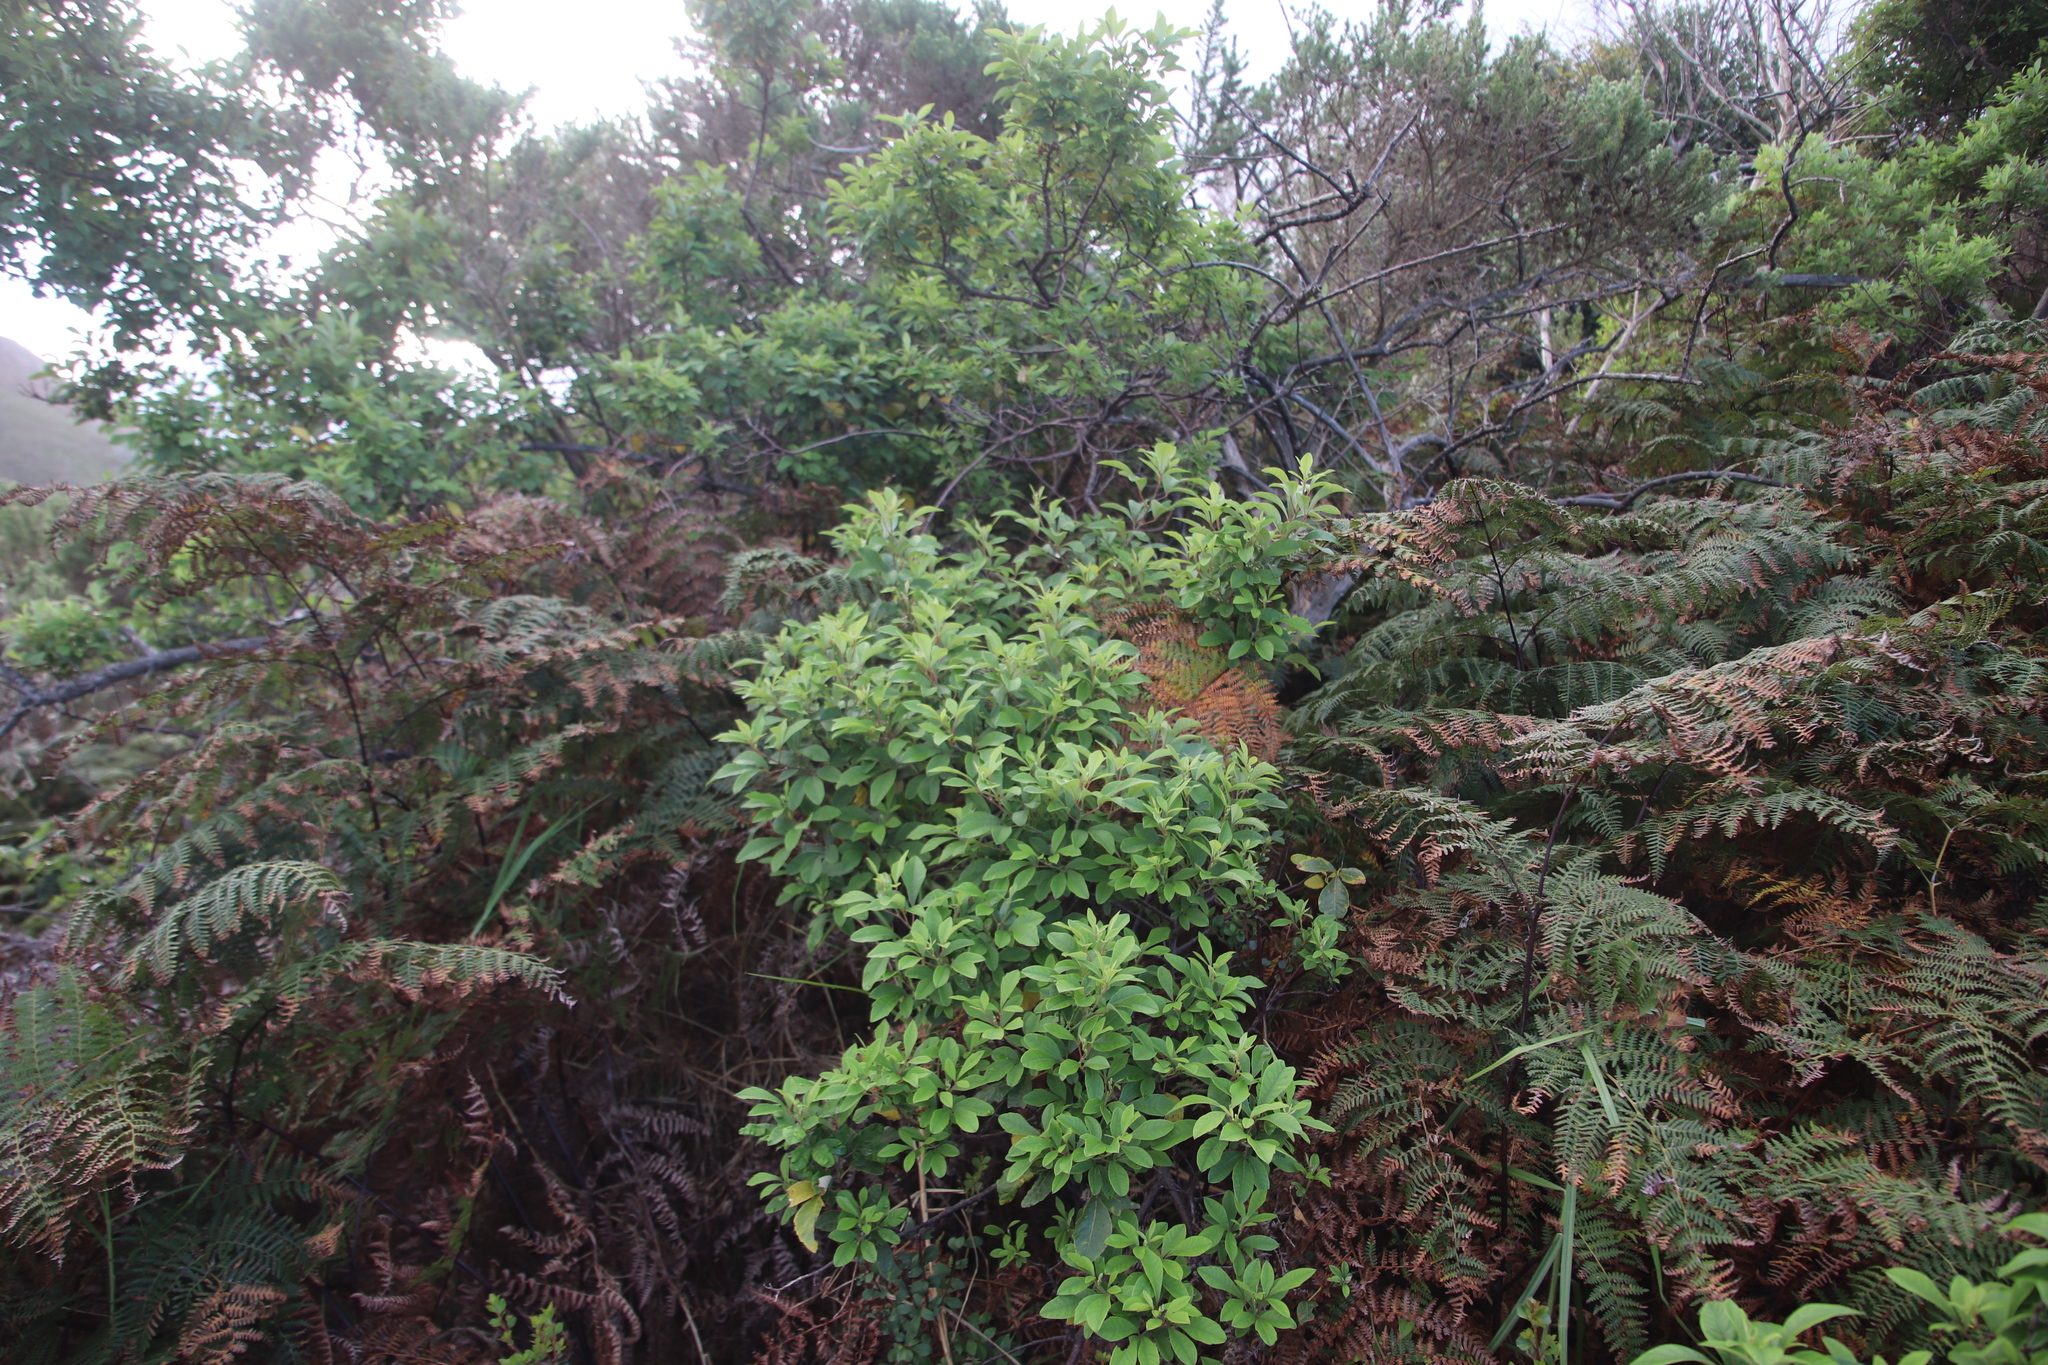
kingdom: Plantae
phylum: Tracheophyta
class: Magnoliopsida
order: Sapindales
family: Anacardiaceae
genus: Searsia
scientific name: Searsia tomentosa
